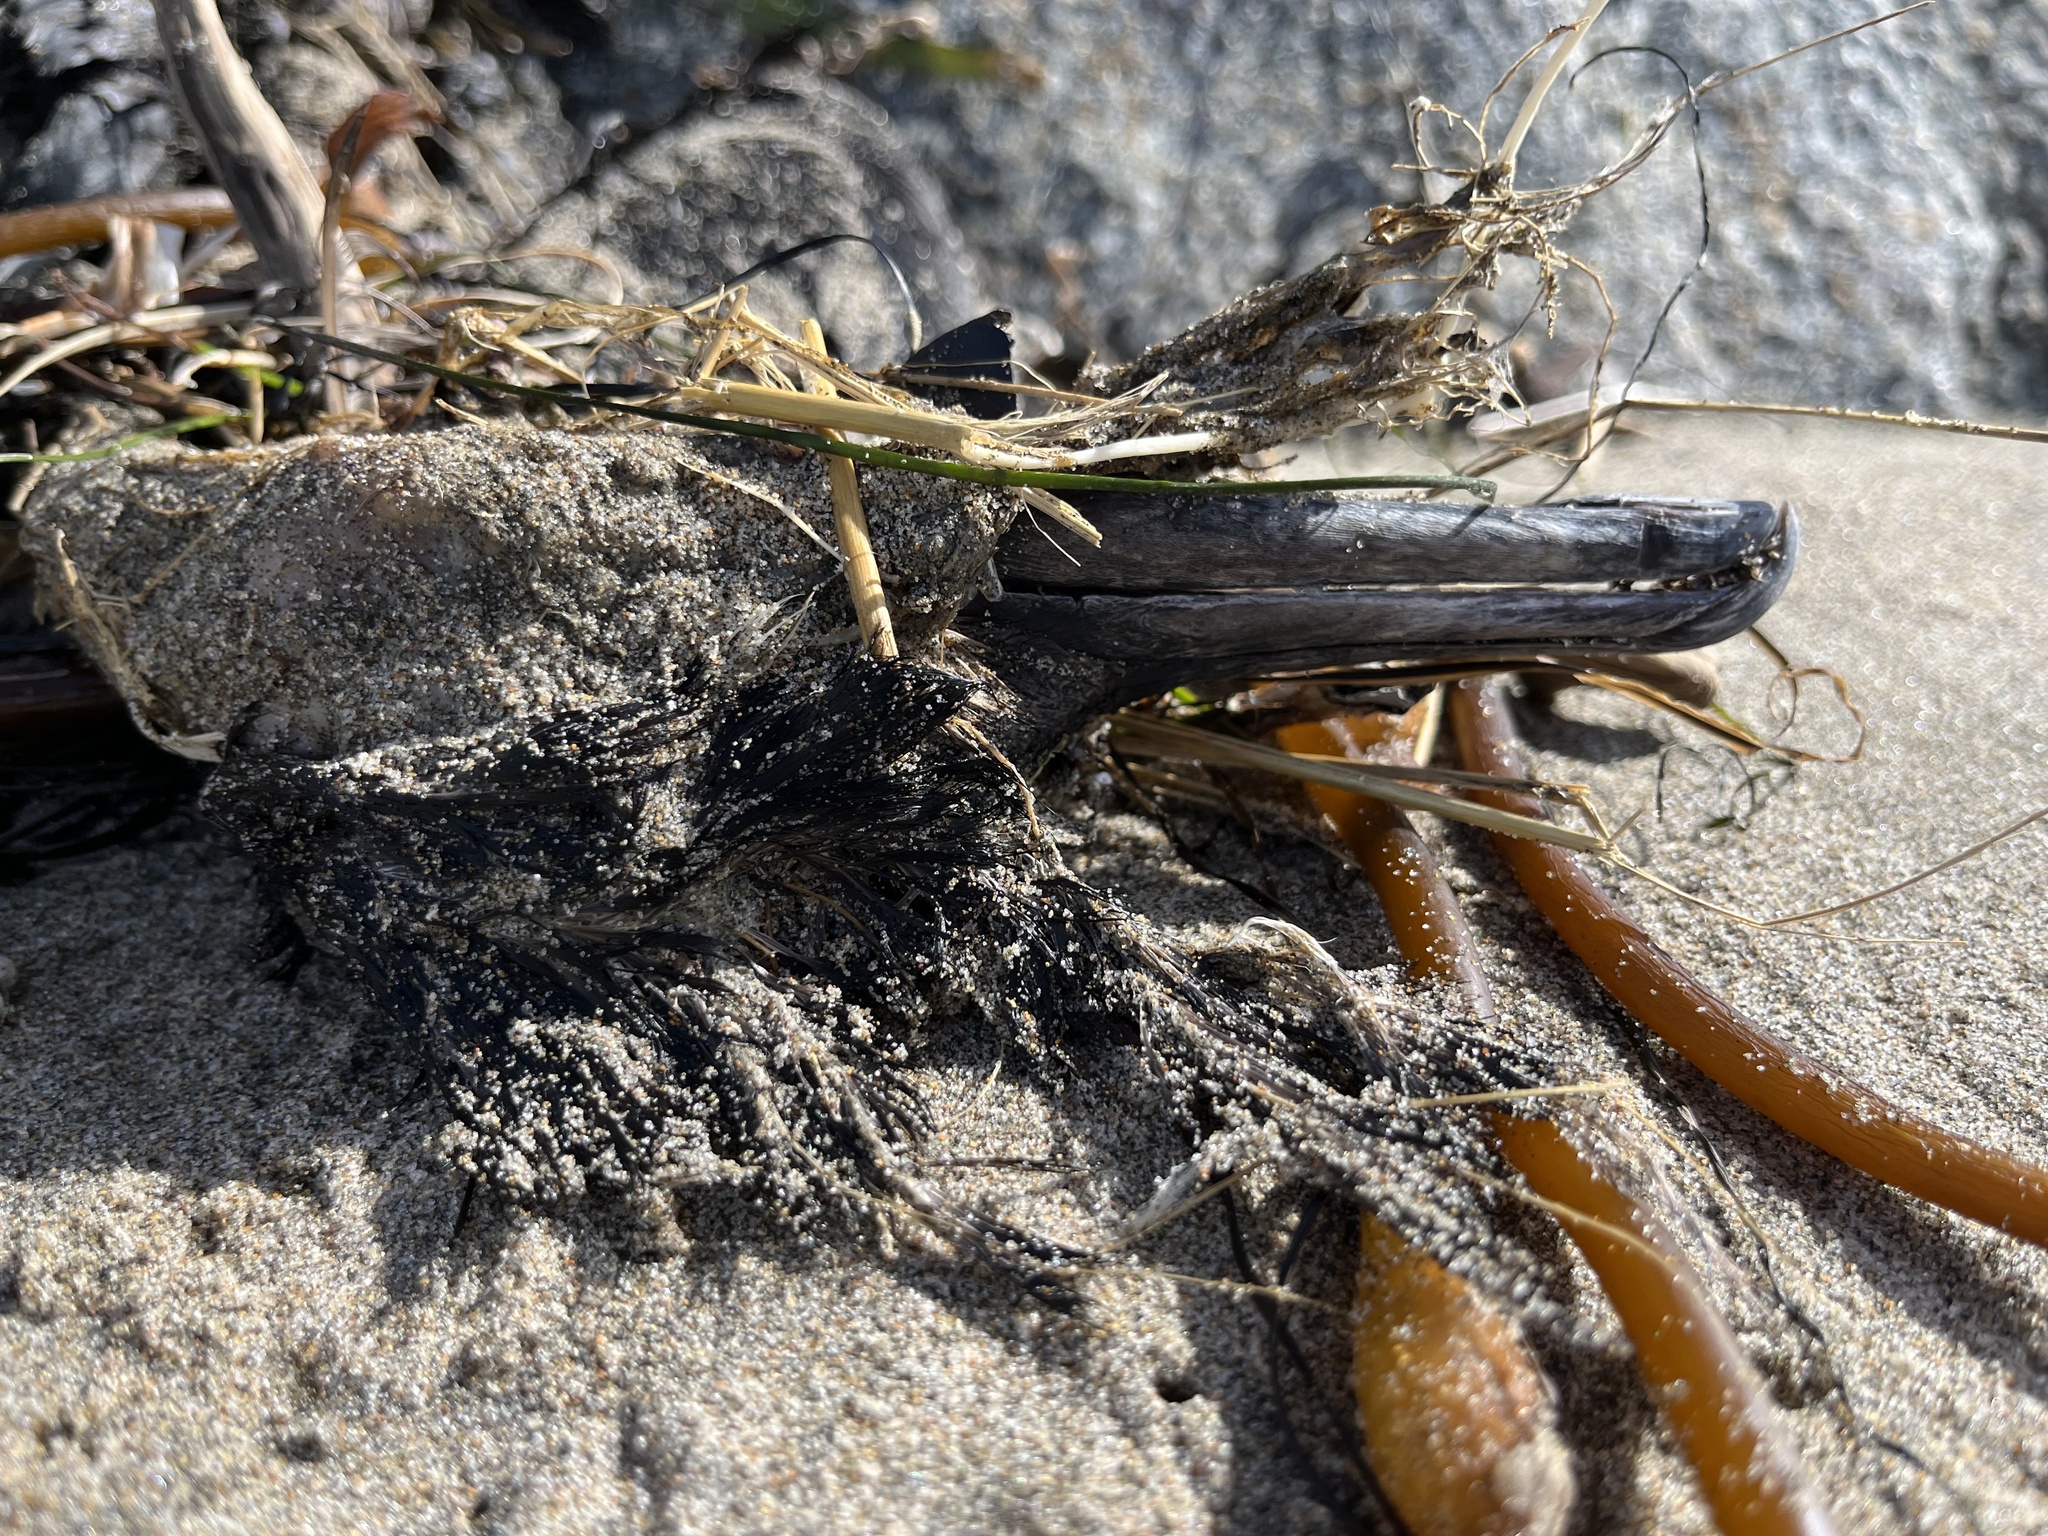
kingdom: Animalia
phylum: Chordata
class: Aves
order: Suliformes
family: Phalacrocoracidae
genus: Urile
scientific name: Urile penicillatus
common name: Brandt's cormorant
